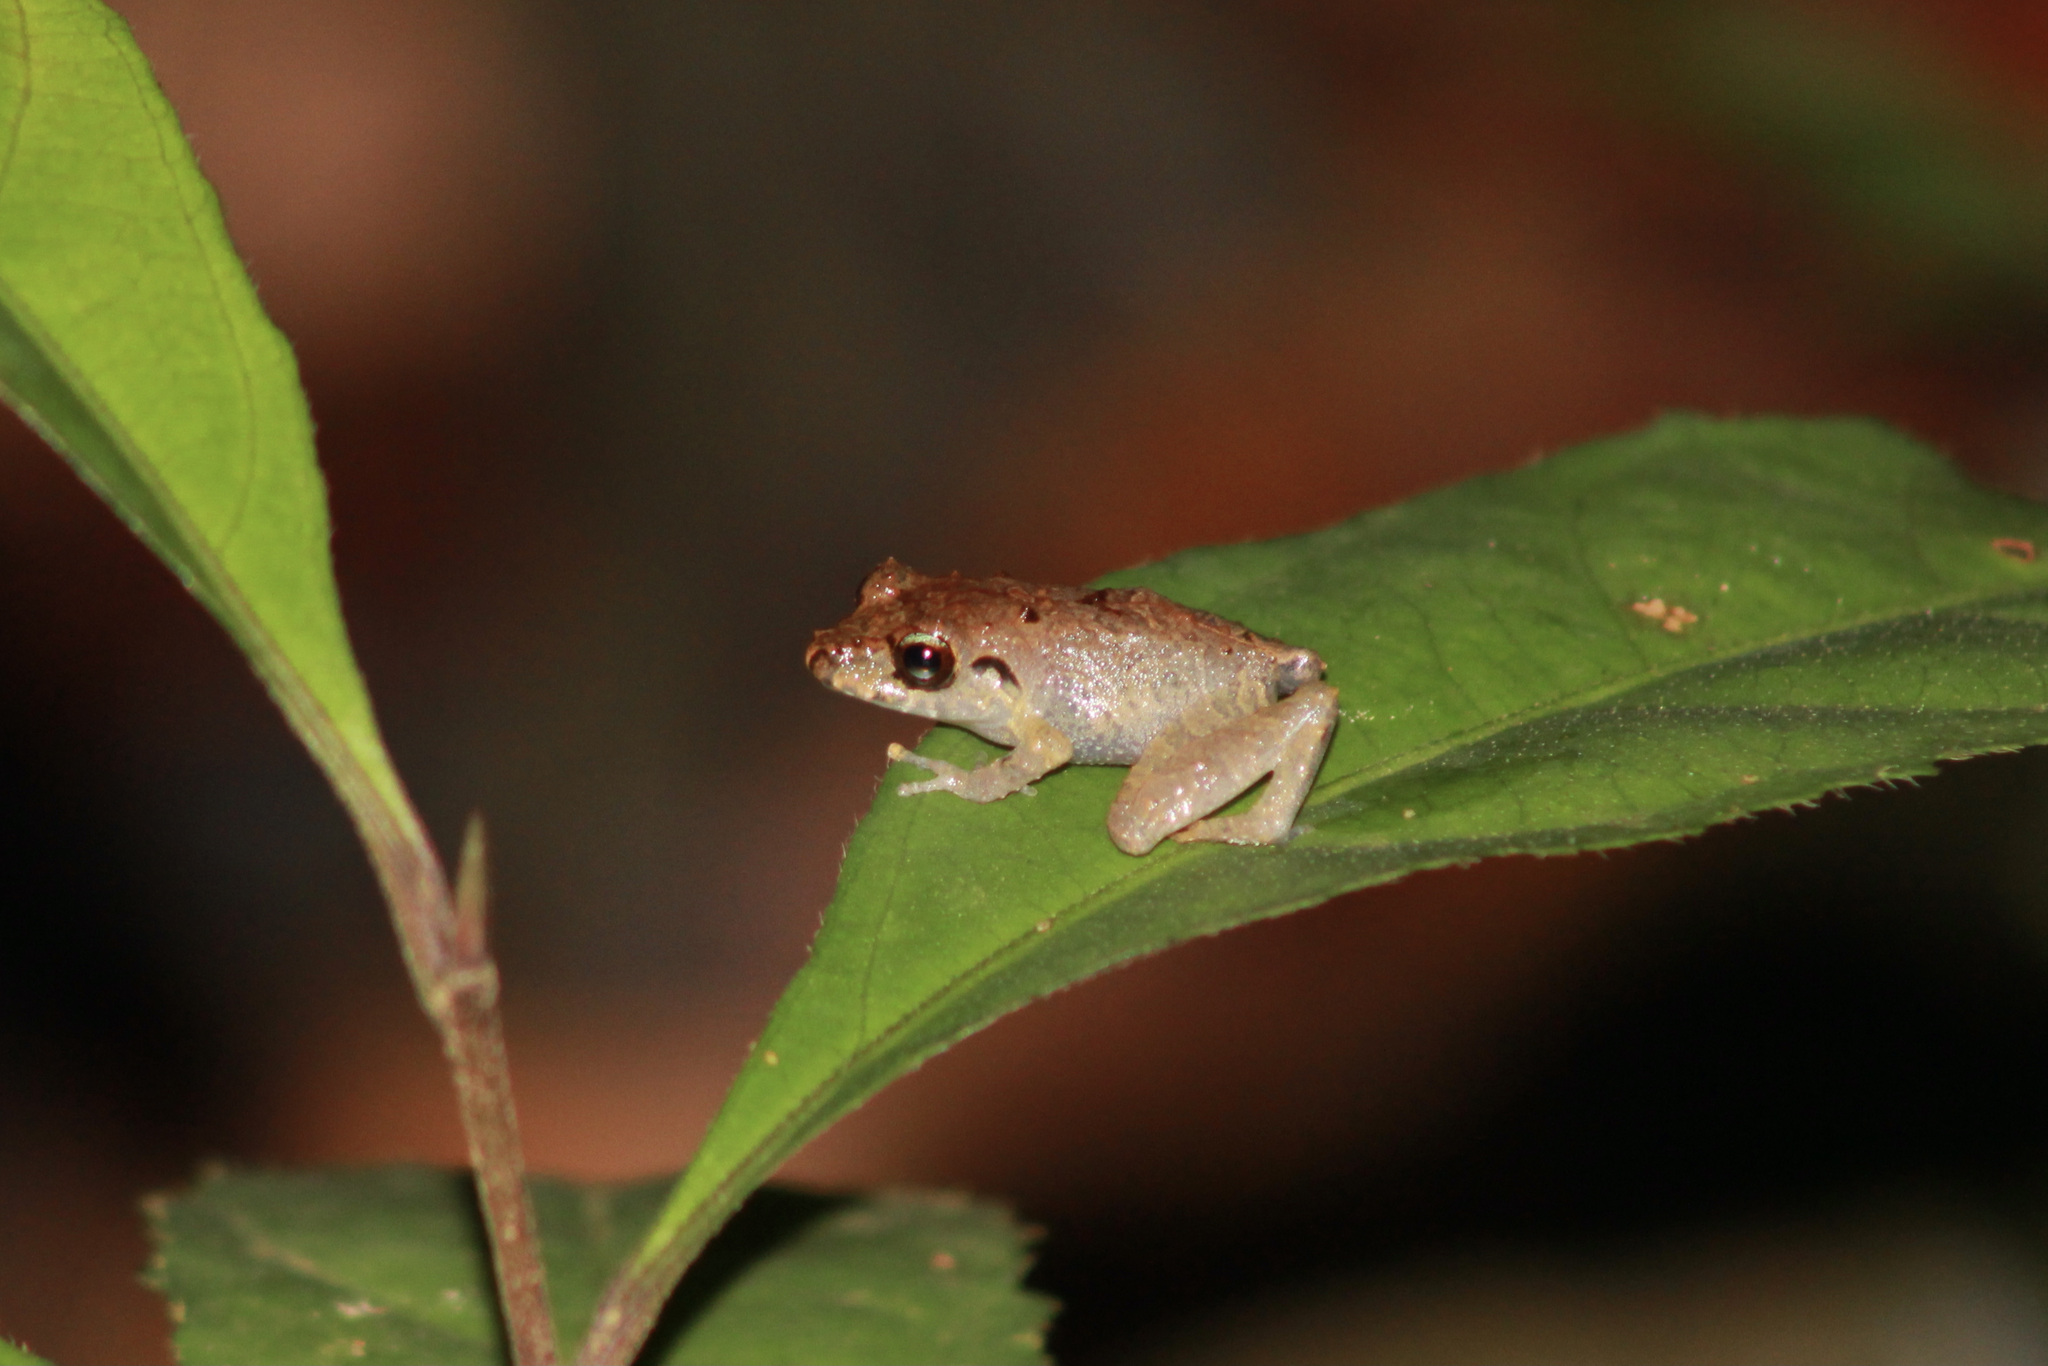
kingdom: Animalia
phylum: Chordata
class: Amphibia
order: Anura
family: Craugastoridae
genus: Pristimantis
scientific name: Pristimantis urichi
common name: Lesser antilles robber frog
